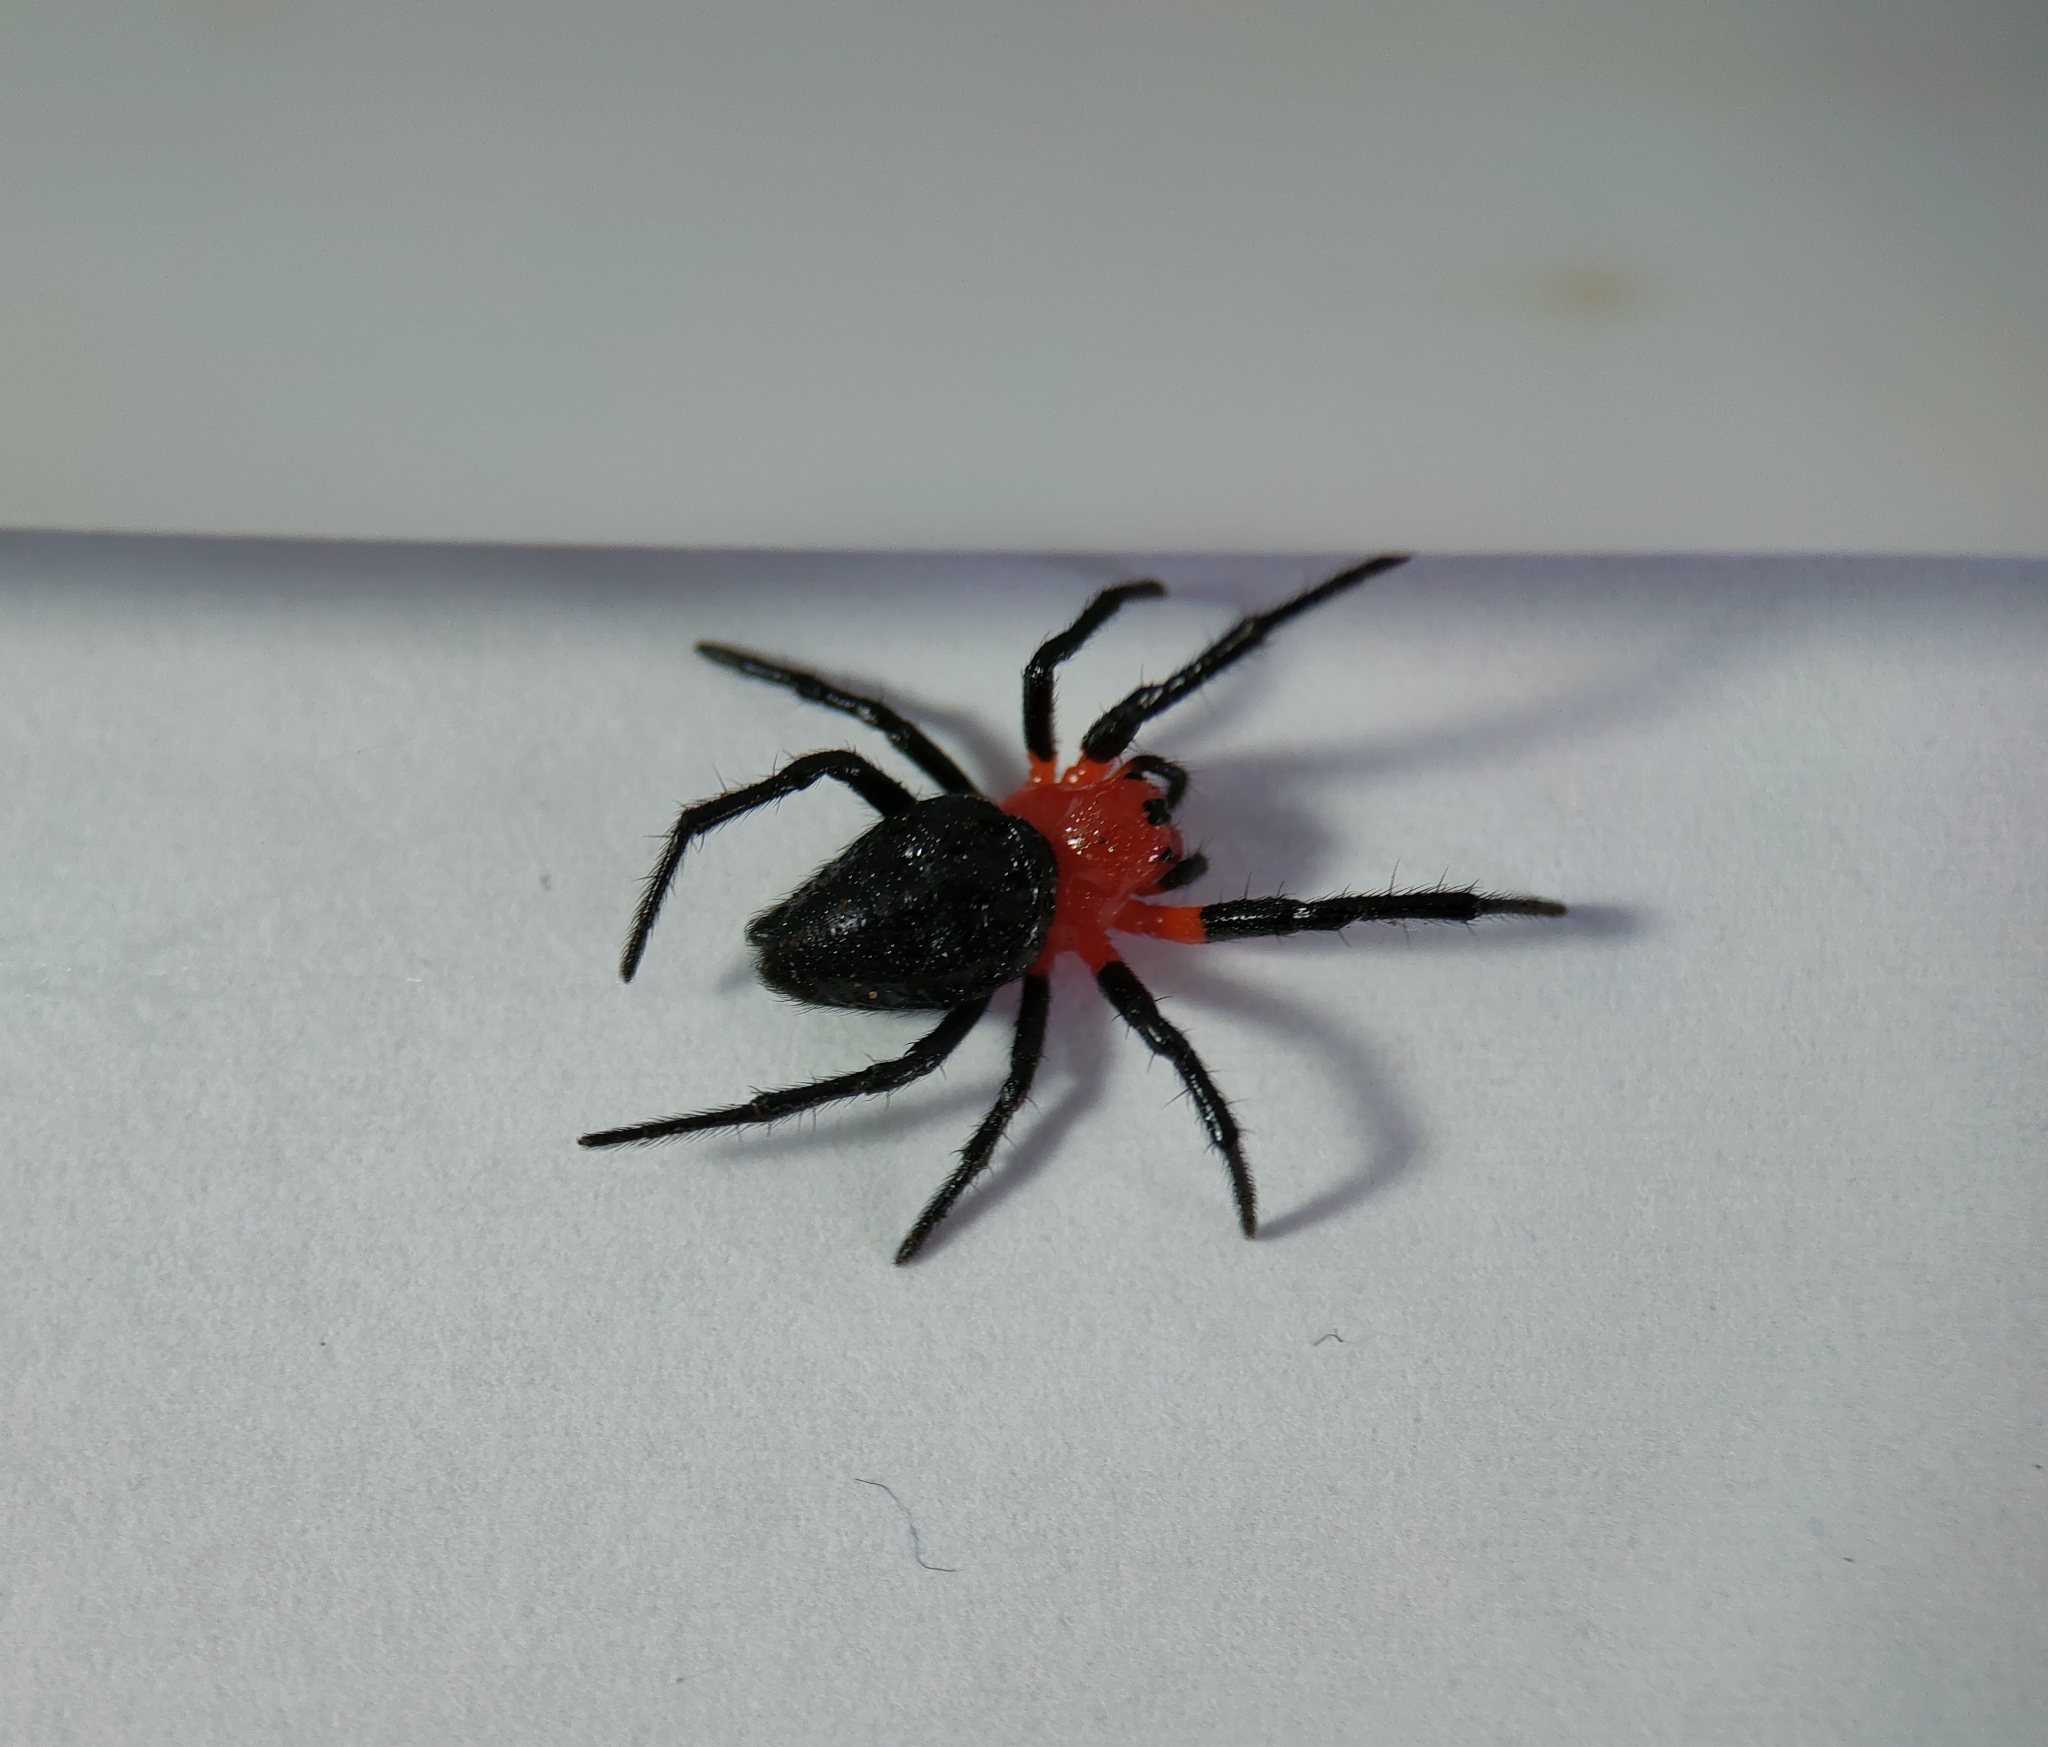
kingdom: Animalia
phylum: Arthropoda
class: Arachnida
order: Araneae
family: Araneidae
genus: Alpaida
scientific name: Alpaida acuta
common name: Orb weavers
